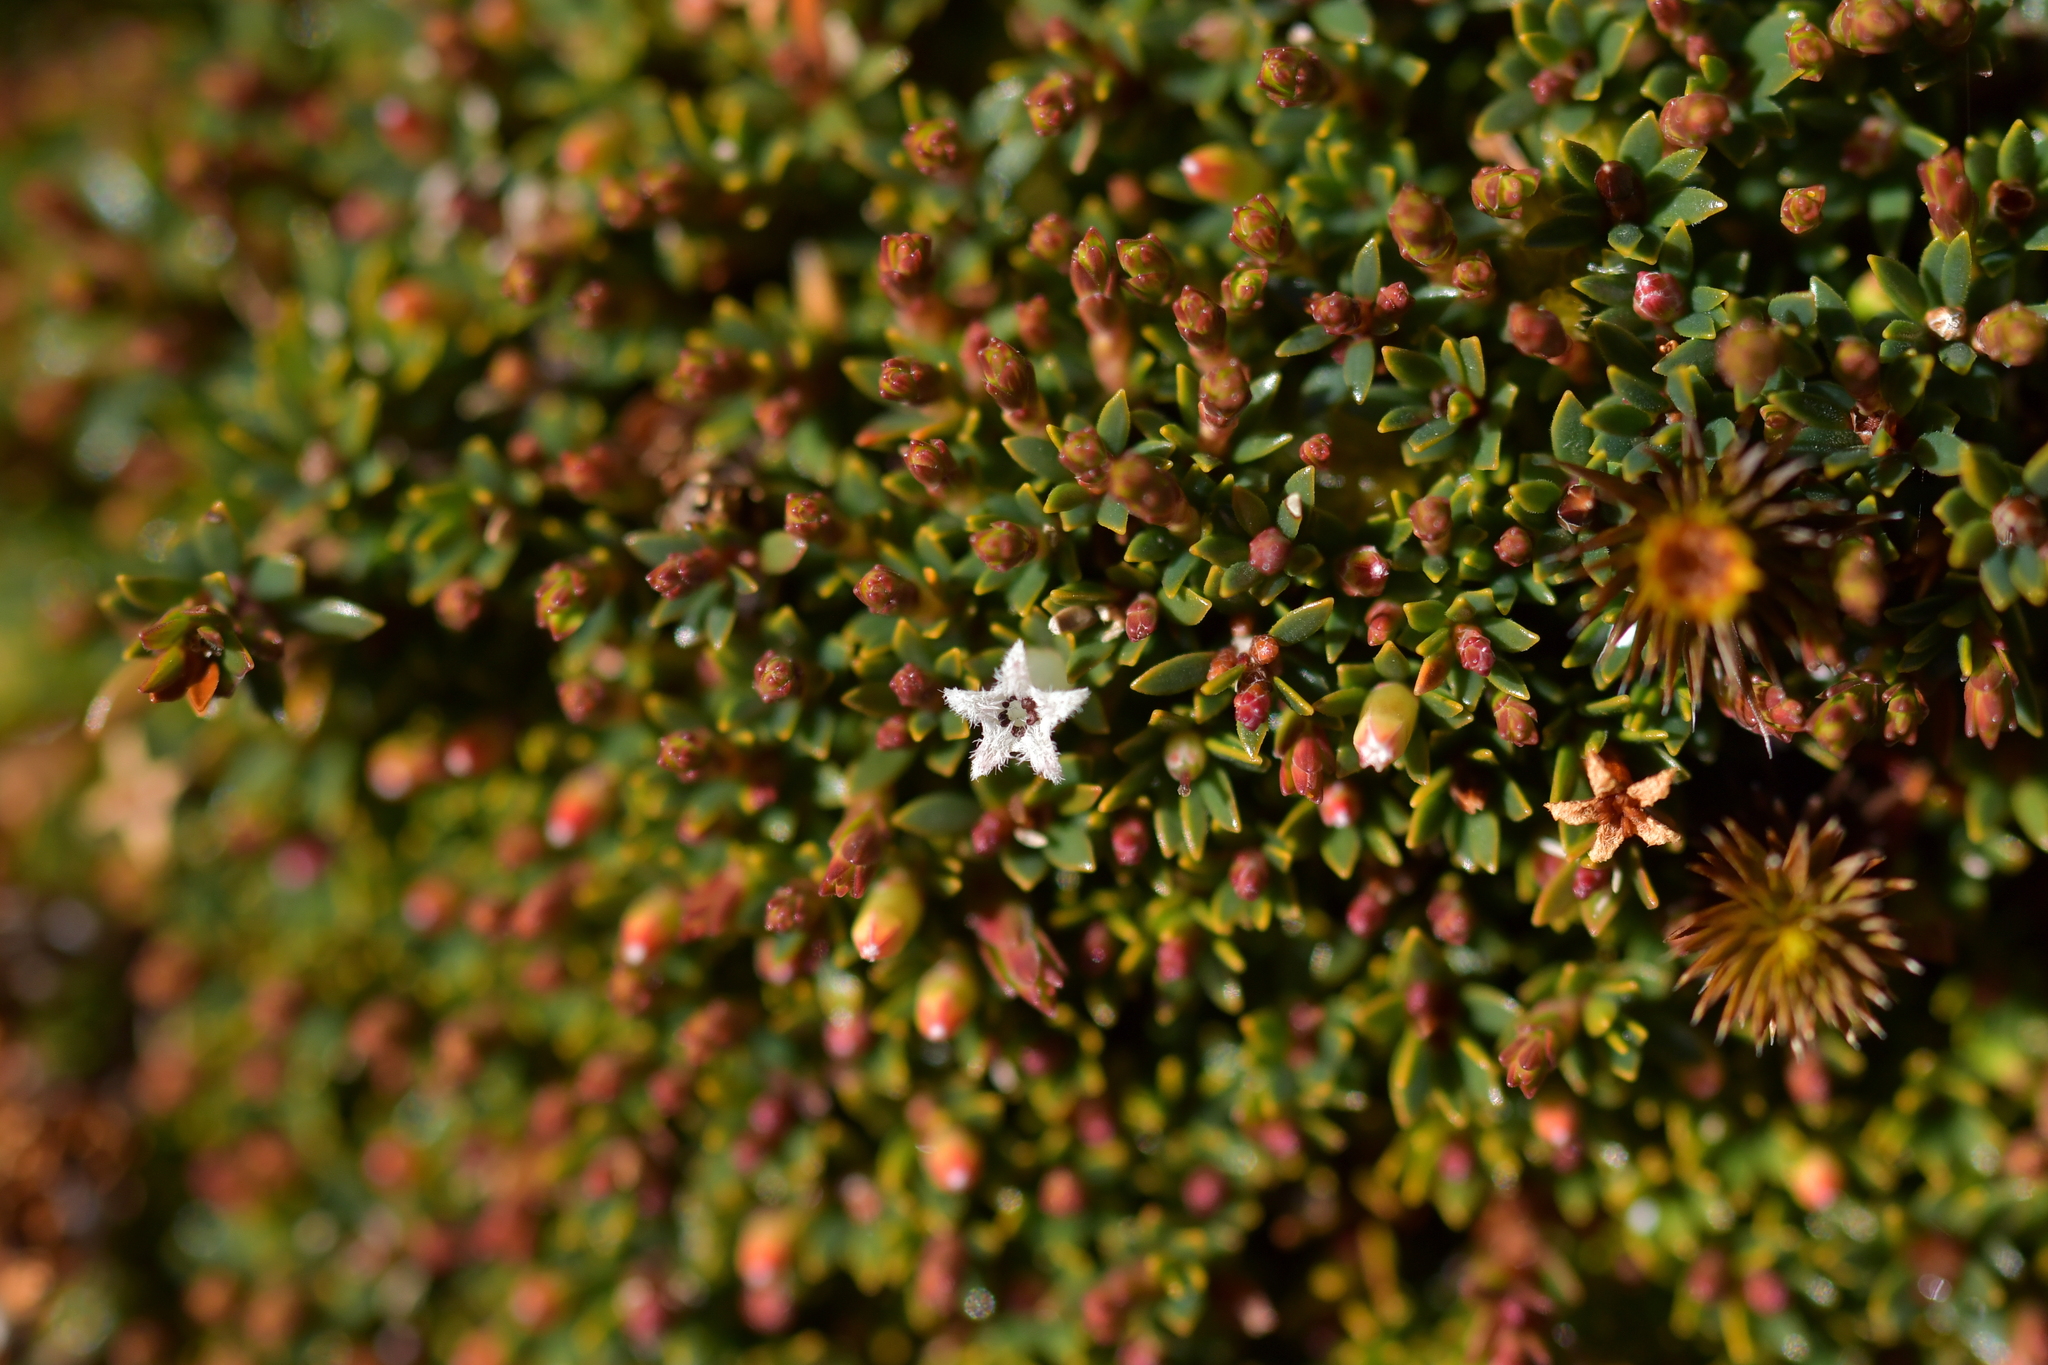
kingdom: Plantae
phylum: Tracheophyta
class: Magnoliopsida
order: Ericales
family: Ericaceae
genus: Pentachondra
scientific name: Pentachondra pumila
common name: Carpet-heath
